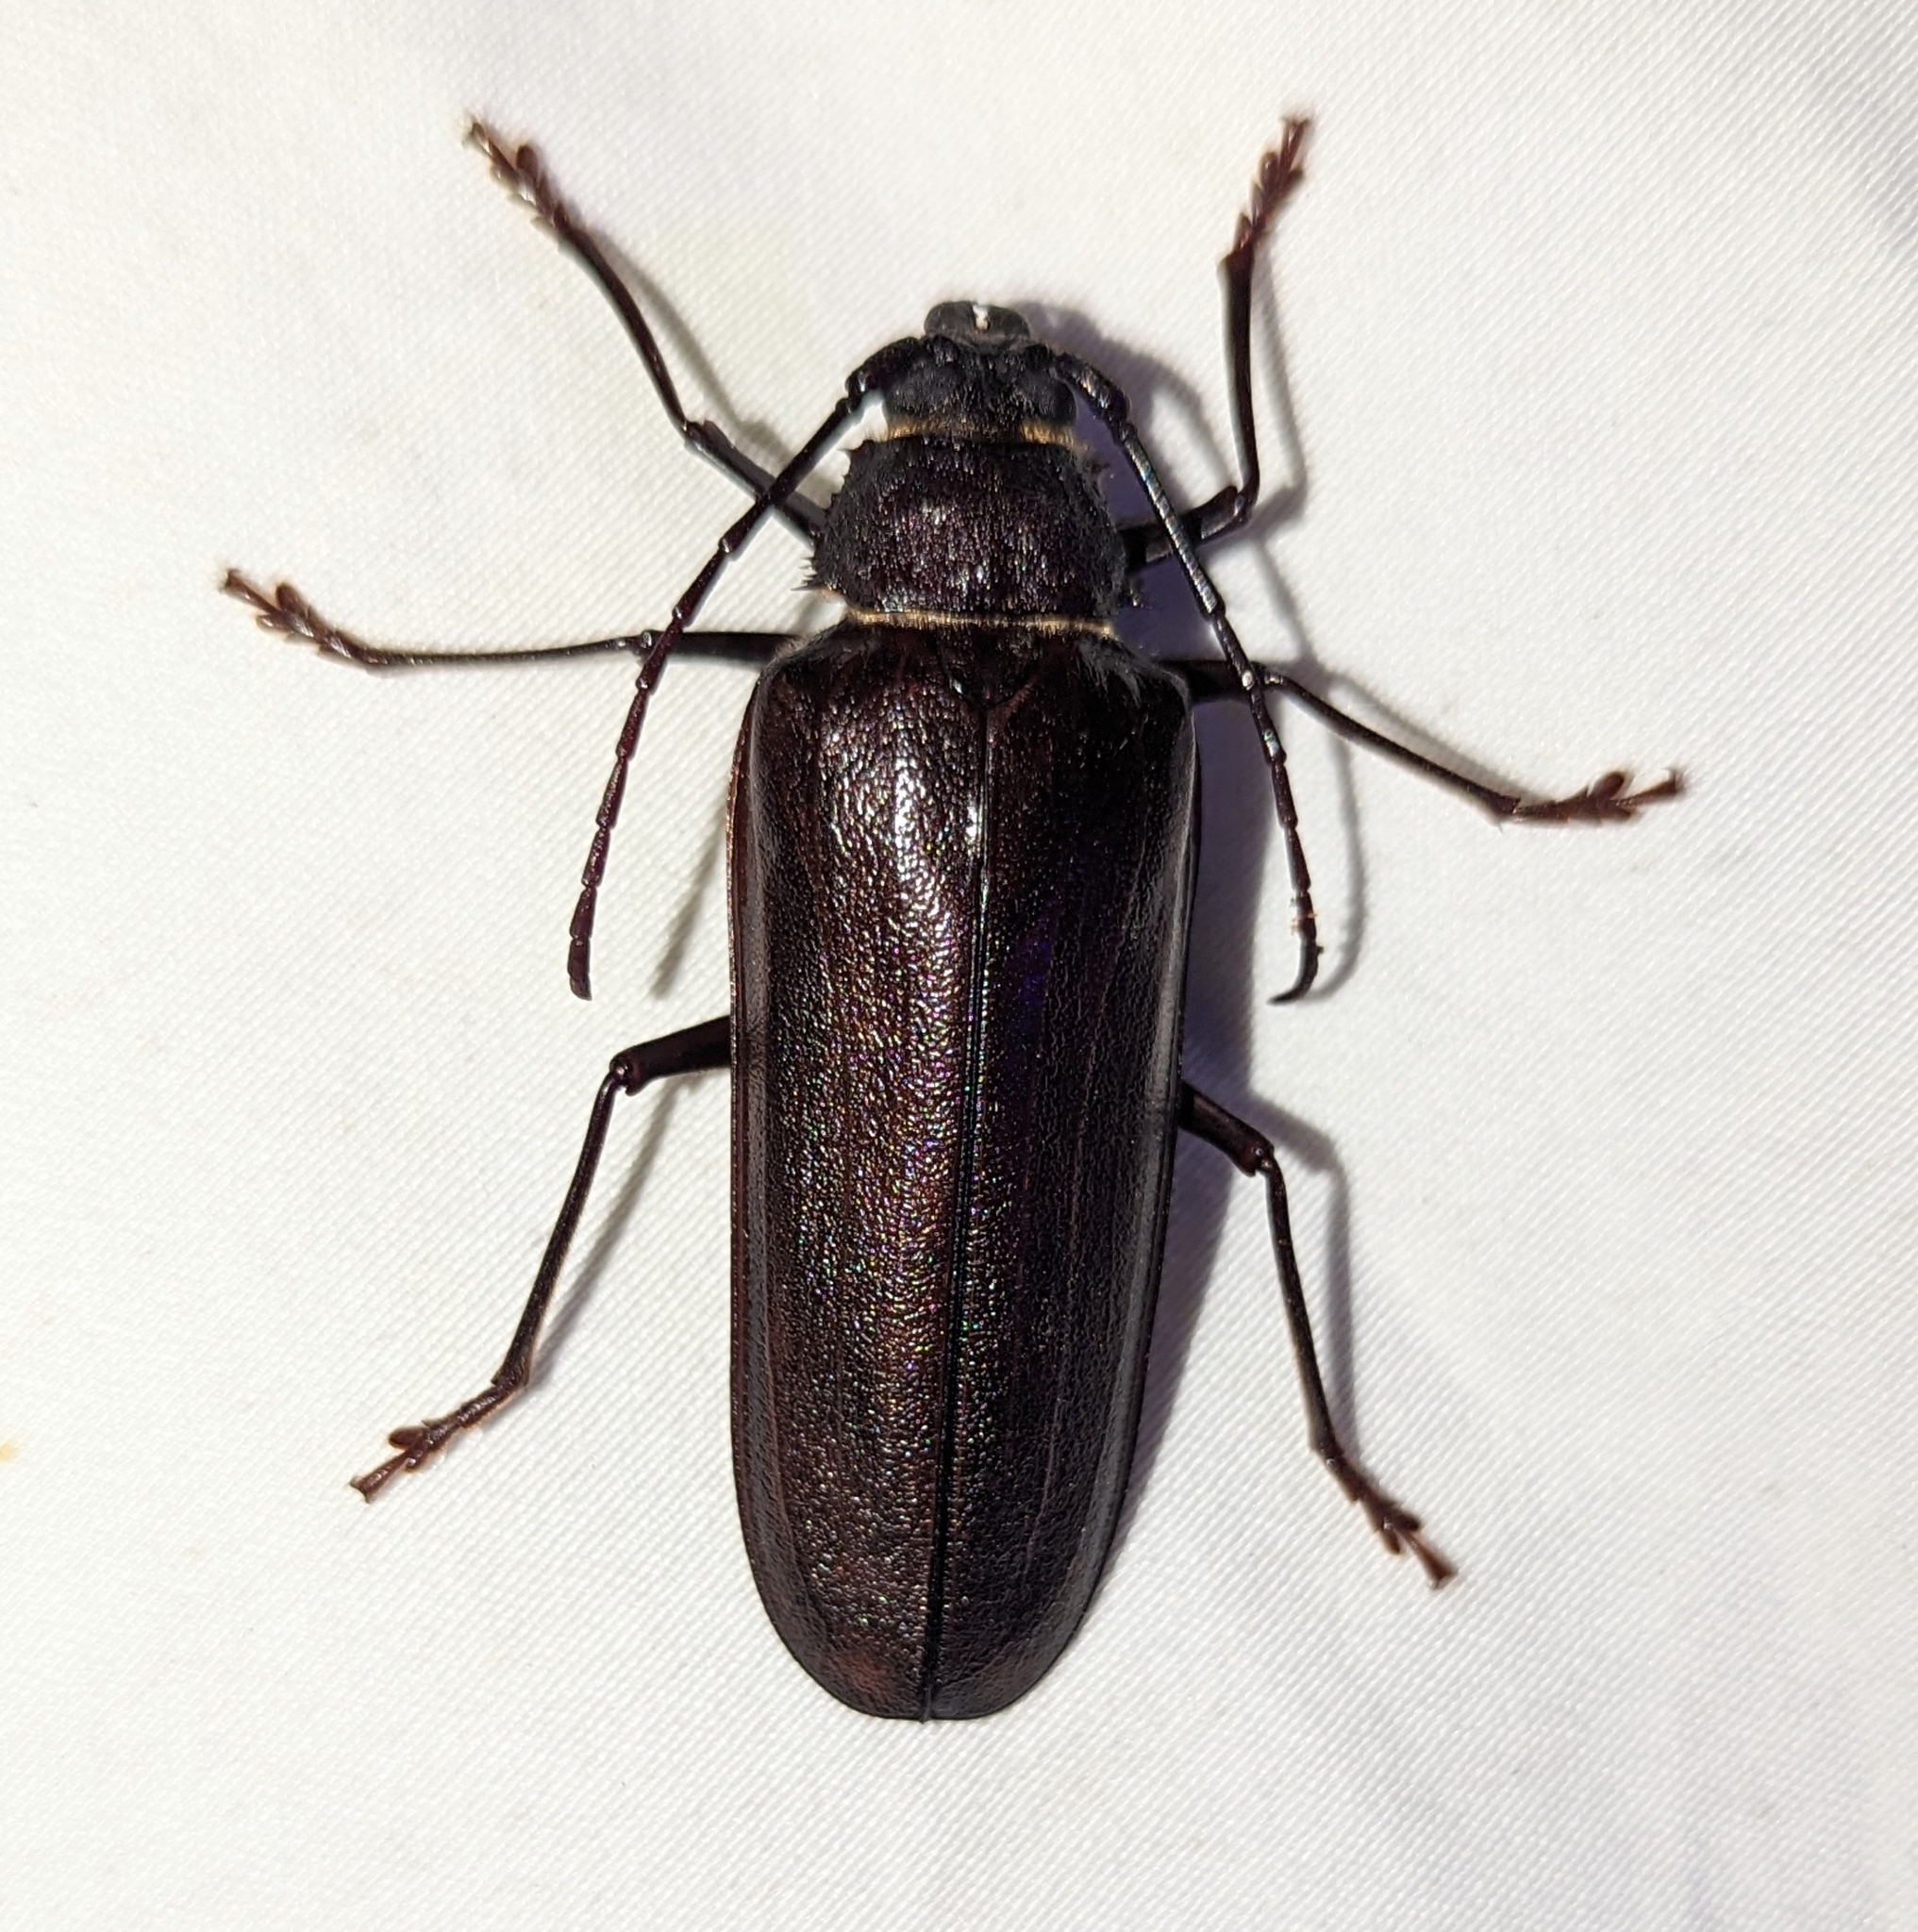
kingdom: Animalia
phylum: Arthropoda
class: Insecta
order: Coleoptera
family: Cerambycidae
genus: Trichocnemis
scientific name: Trichocnemis spiculatus
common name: Long-horned beetle
